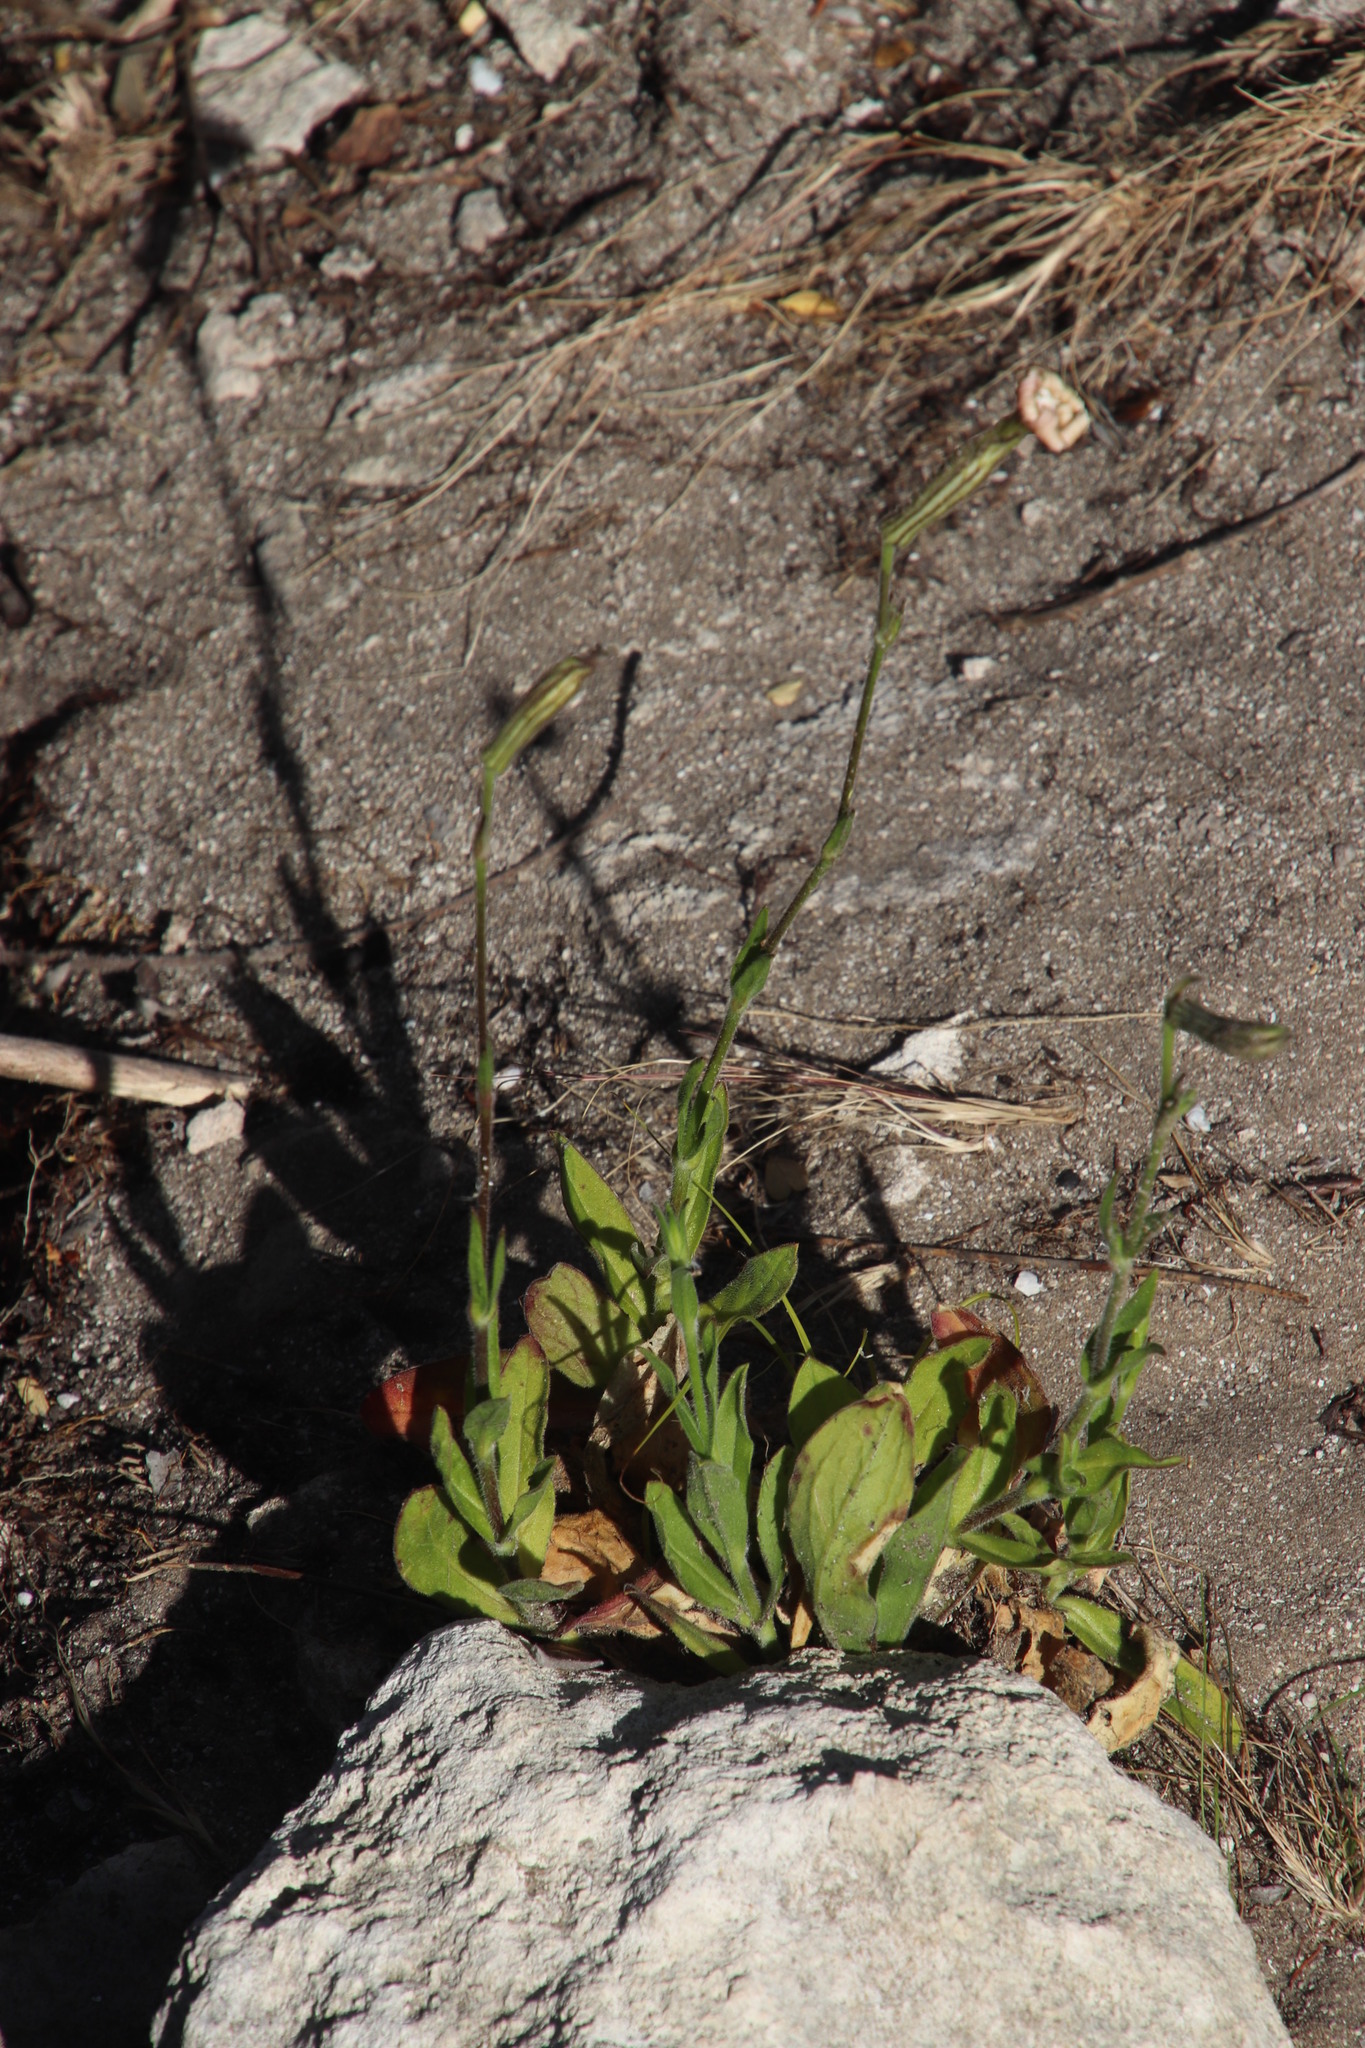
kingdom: Plantae
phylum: Tracheophyta
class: Magnoliopsida
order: Caryophyllales
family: Caryophyllaceae
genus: Silene
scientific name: Silene undulata
